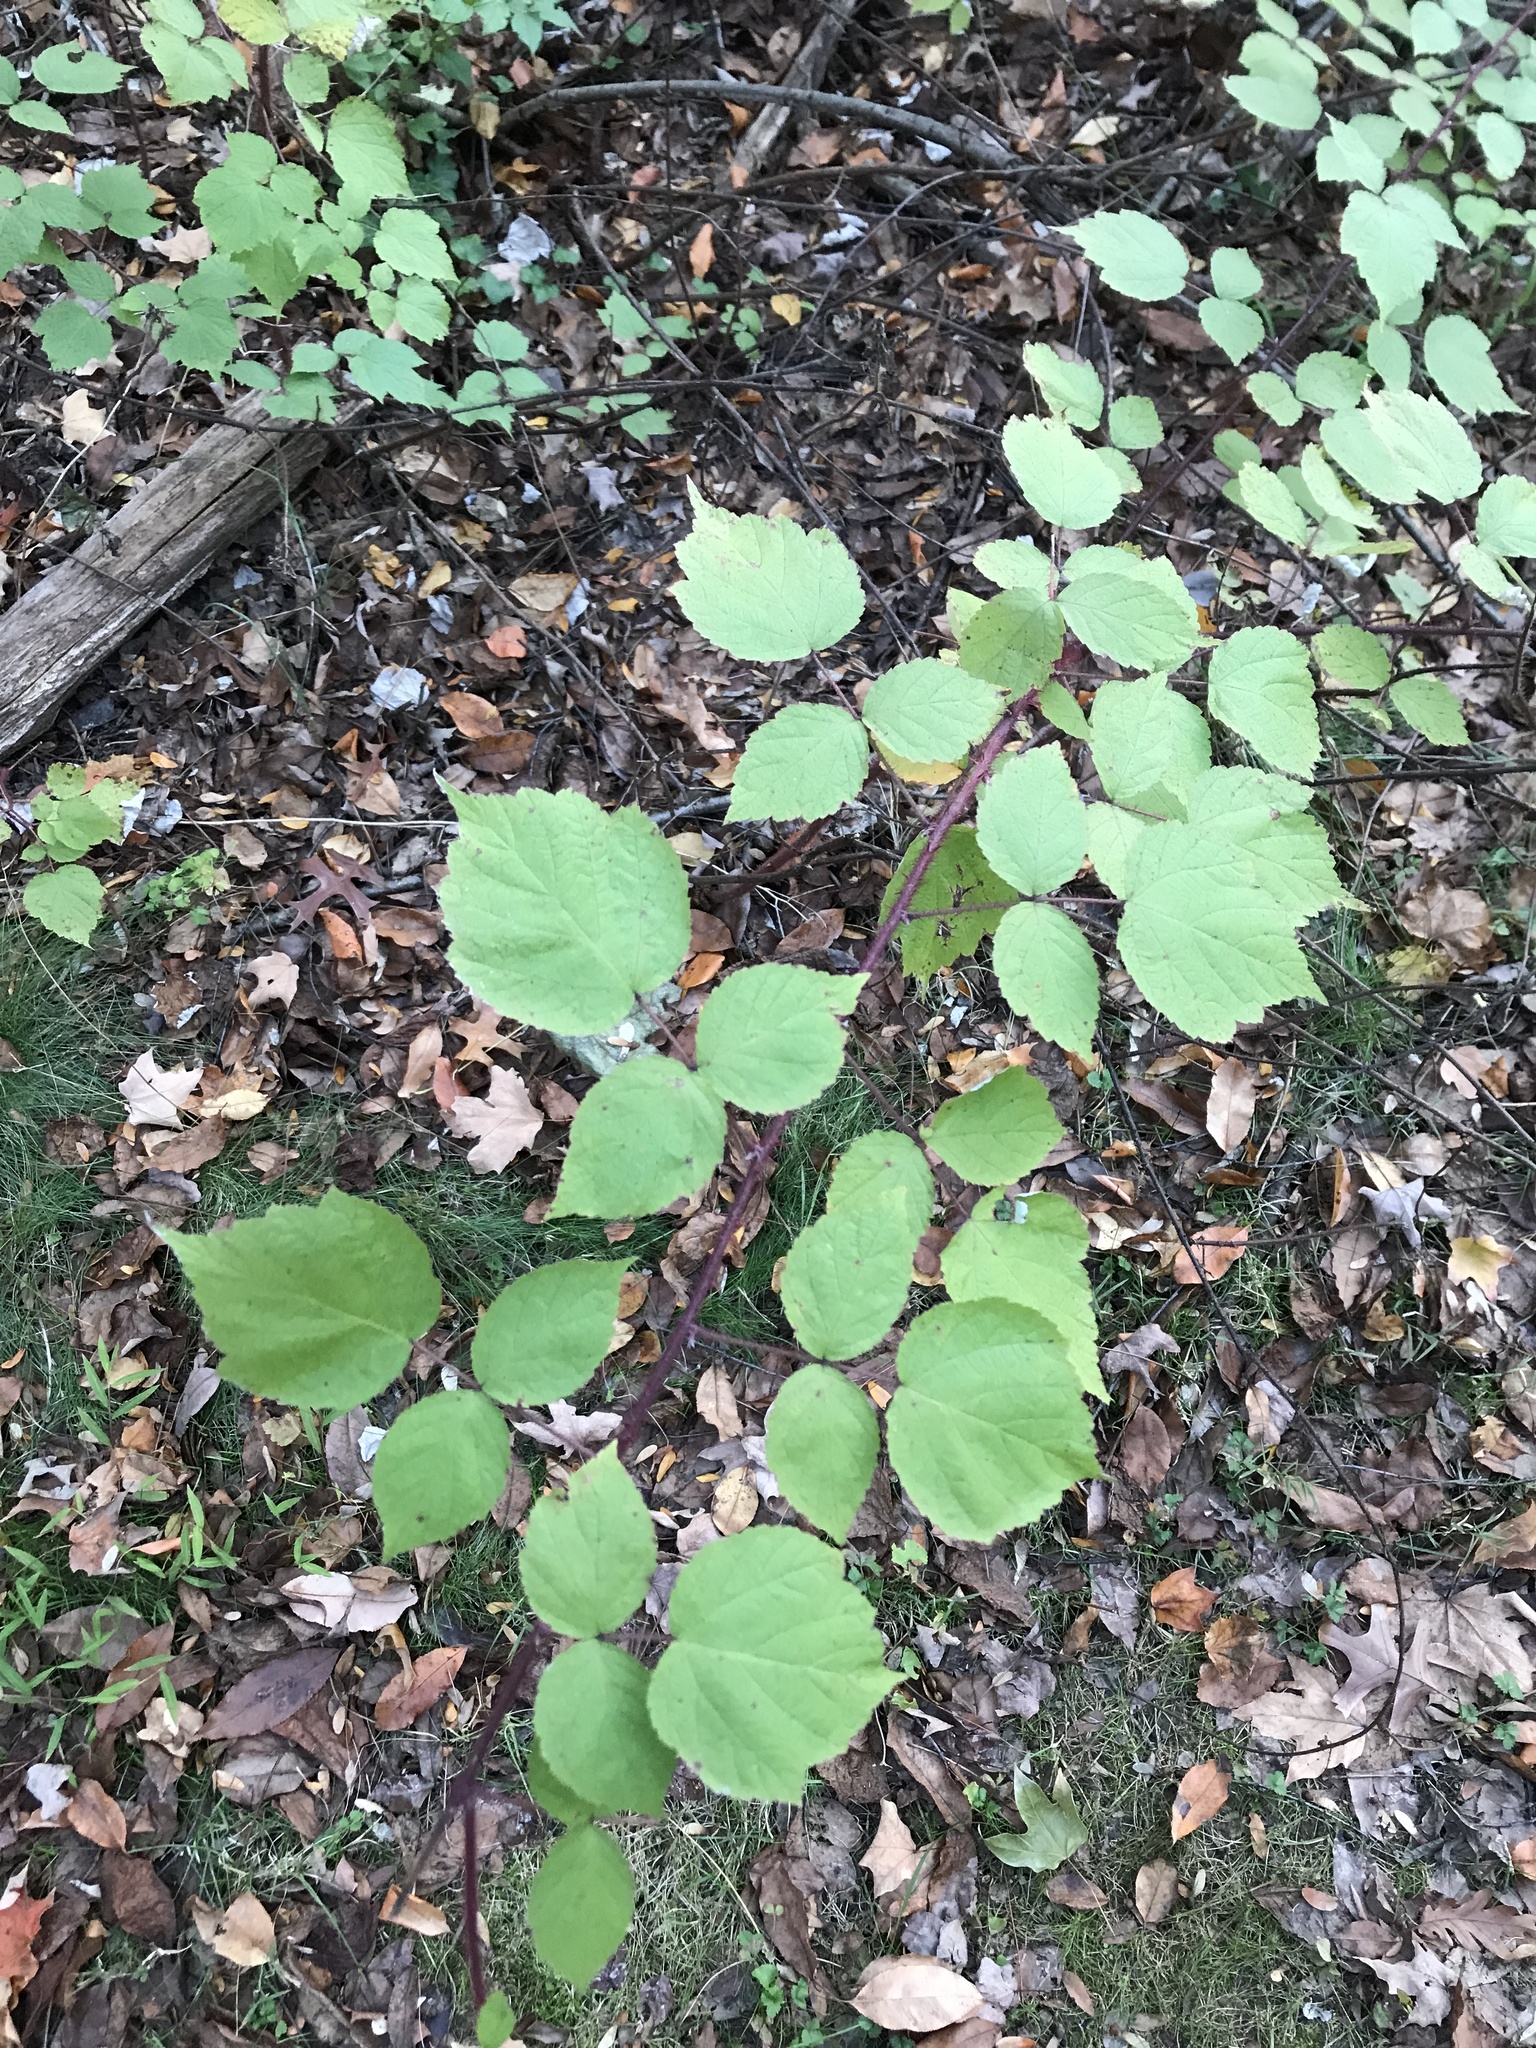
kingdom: Plantae
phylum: Tracheophyta
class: Magnoliopsida
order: Rosales
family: Rosaceae
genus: Rubus
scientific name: Rubus phoenicolasius
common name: Japanese wineberry
